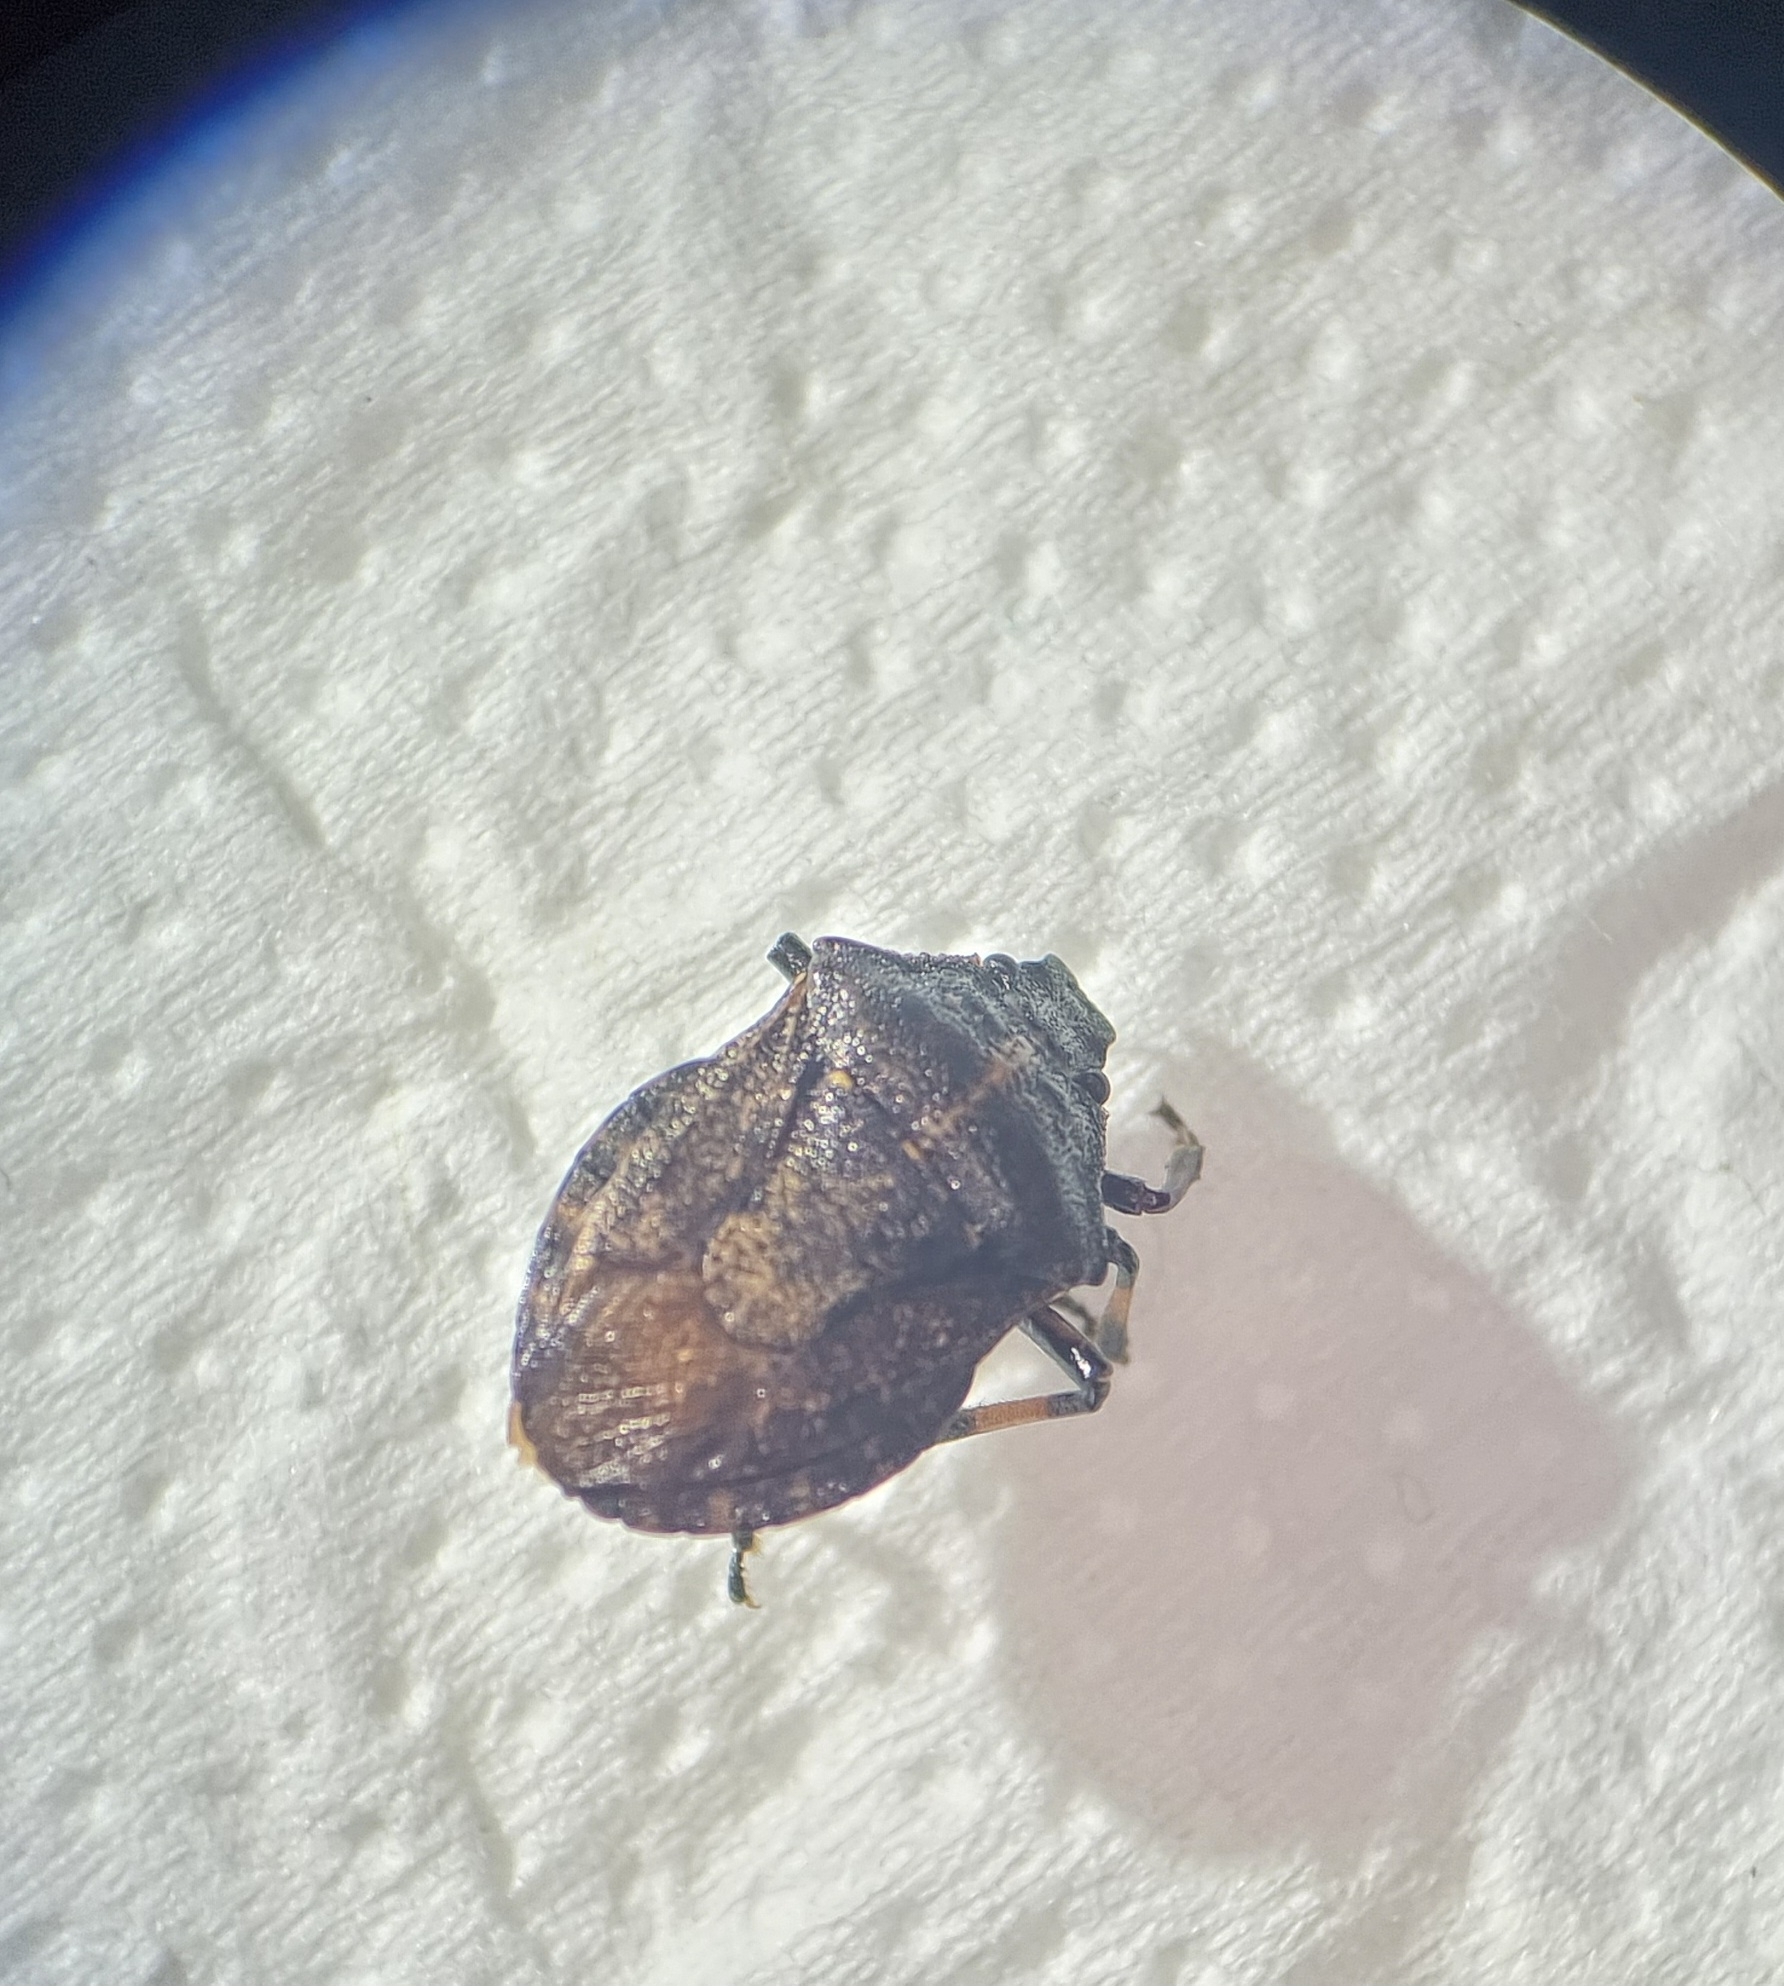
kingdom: Animalia
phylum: Arthropoda
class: Insecta
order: Hemiptera
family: Pentatomidae
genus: Rhacognathus
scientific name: Rhacognathus punctatus
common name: Heather bug
